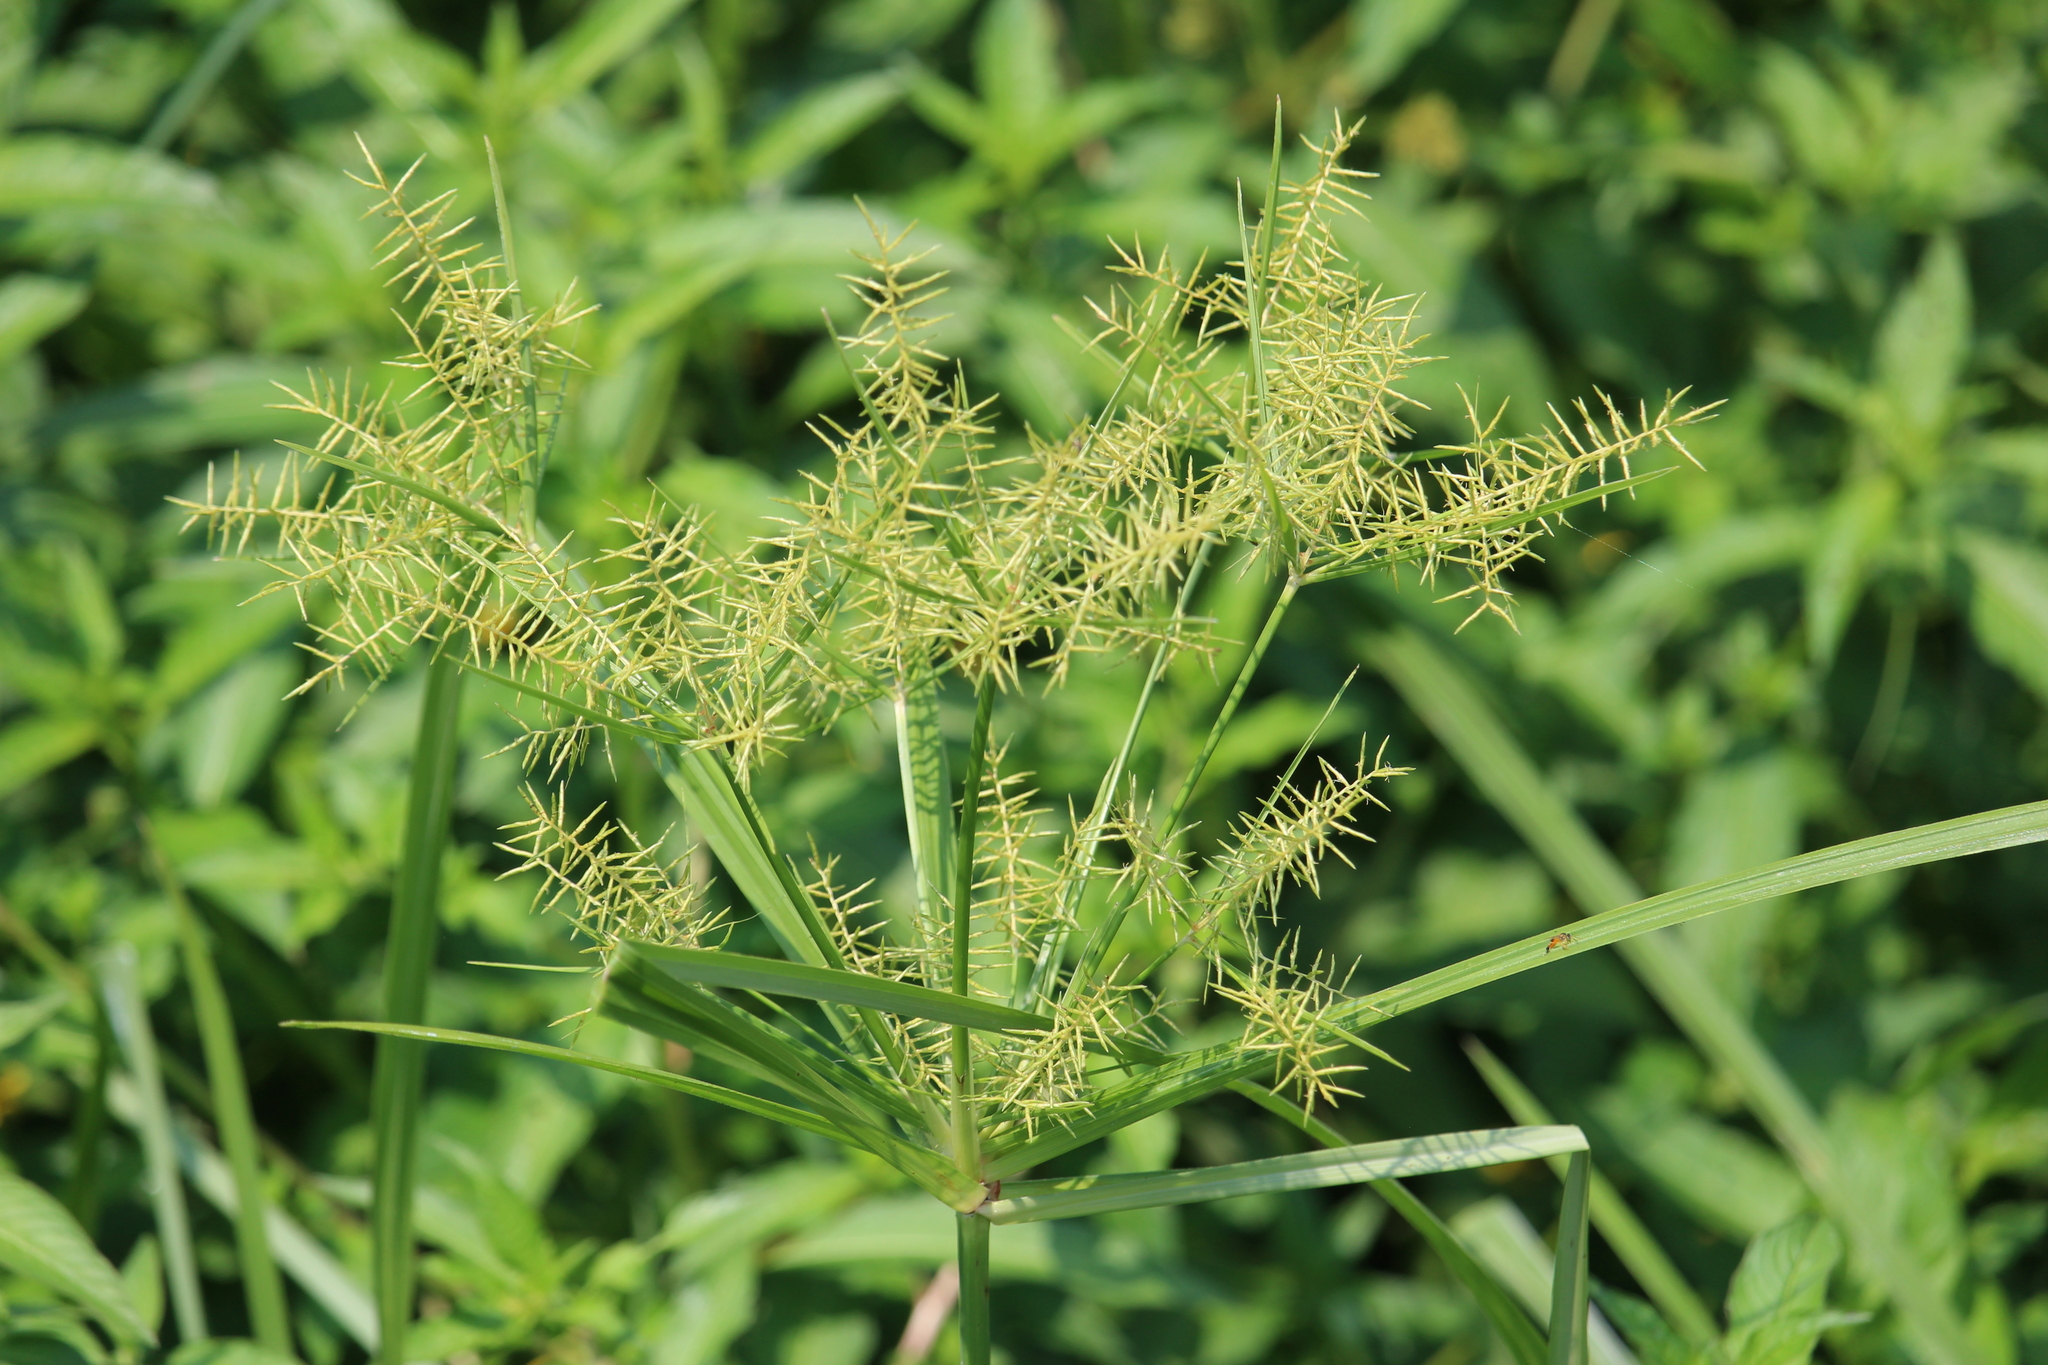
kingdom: Plantae
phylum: Tracheophyta
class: Liliopsida
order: Poales
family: Cyperaceae
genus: Cyperus
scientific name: Cyperus odoratus
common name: Fragrant flatsedge
